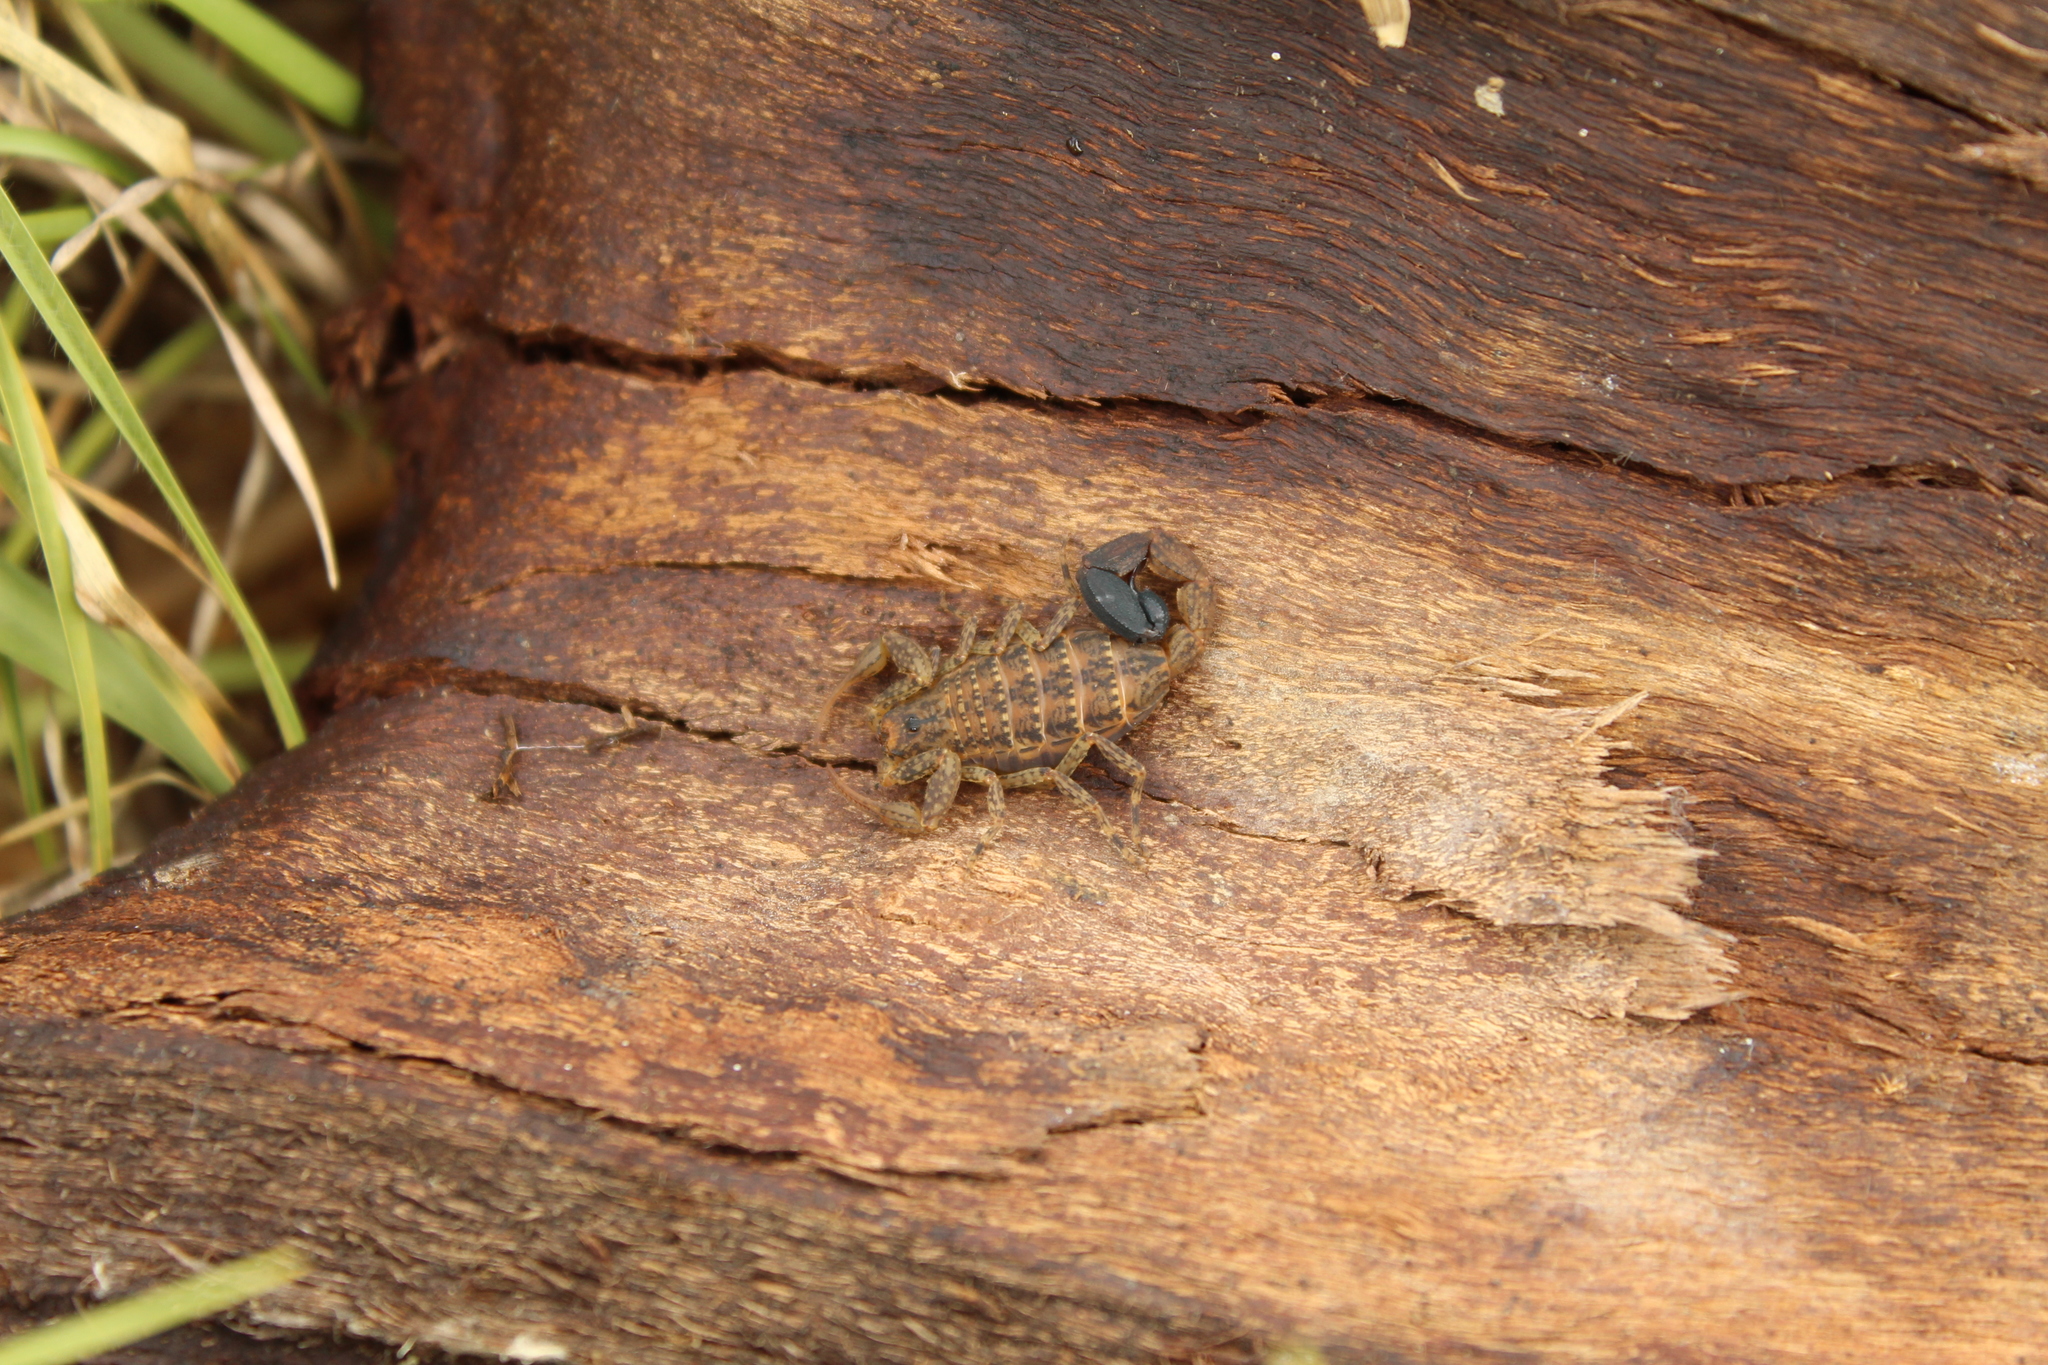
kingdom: Animalia
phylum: Arthropoda
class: Arachnida
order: Scorpiones
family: Buthidae
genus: Tityus
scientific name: Tityus columbianus
